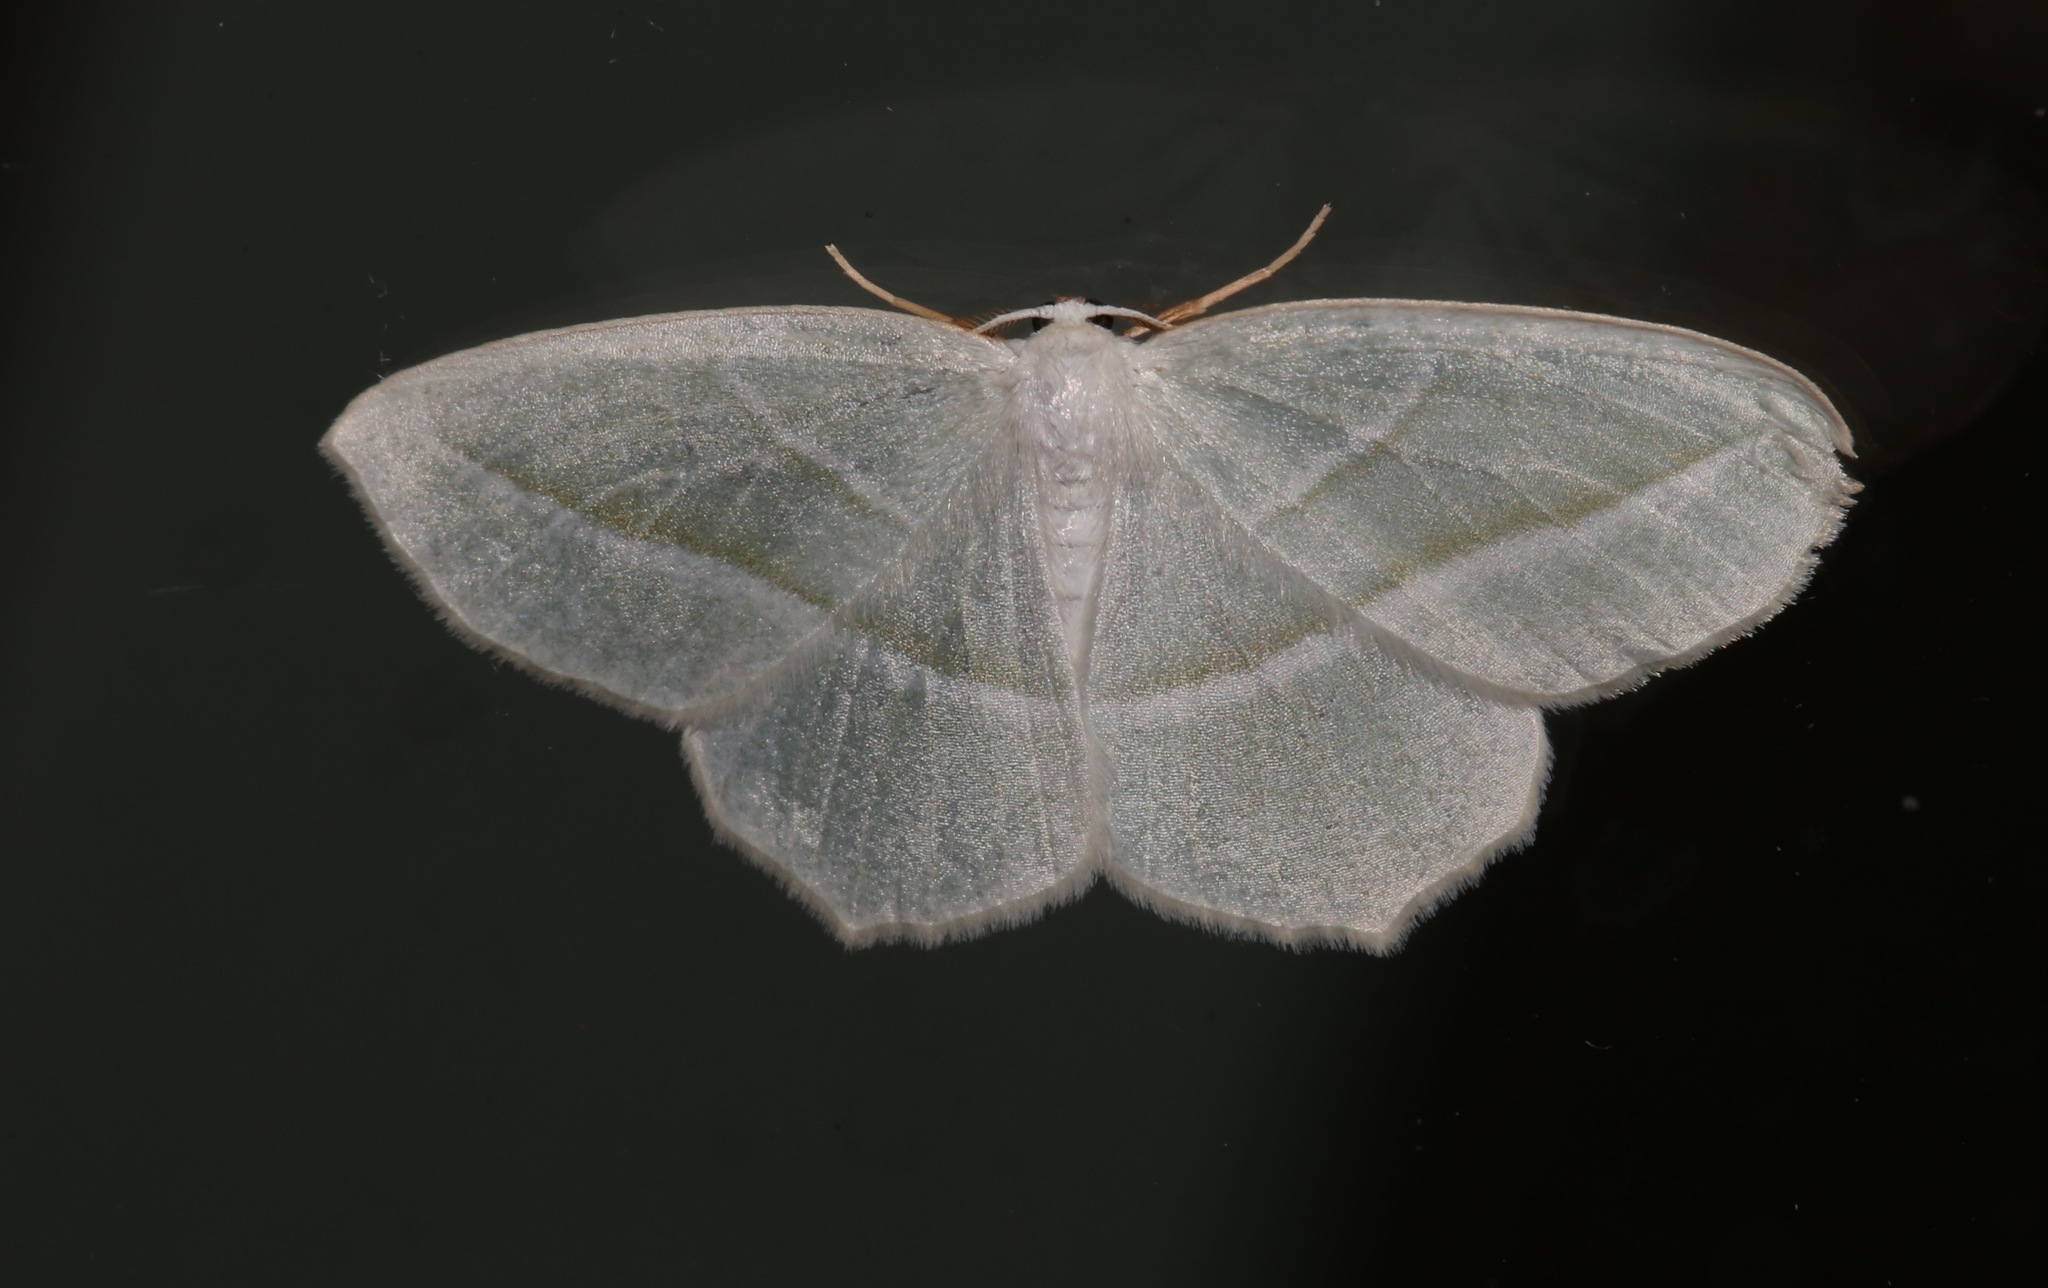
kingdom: Animalia
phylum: Arthropoda
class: Insecta
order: Lepidoptera
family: Geometridae
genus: Campaea
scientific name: Campaea perlata
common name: Fringed looper
